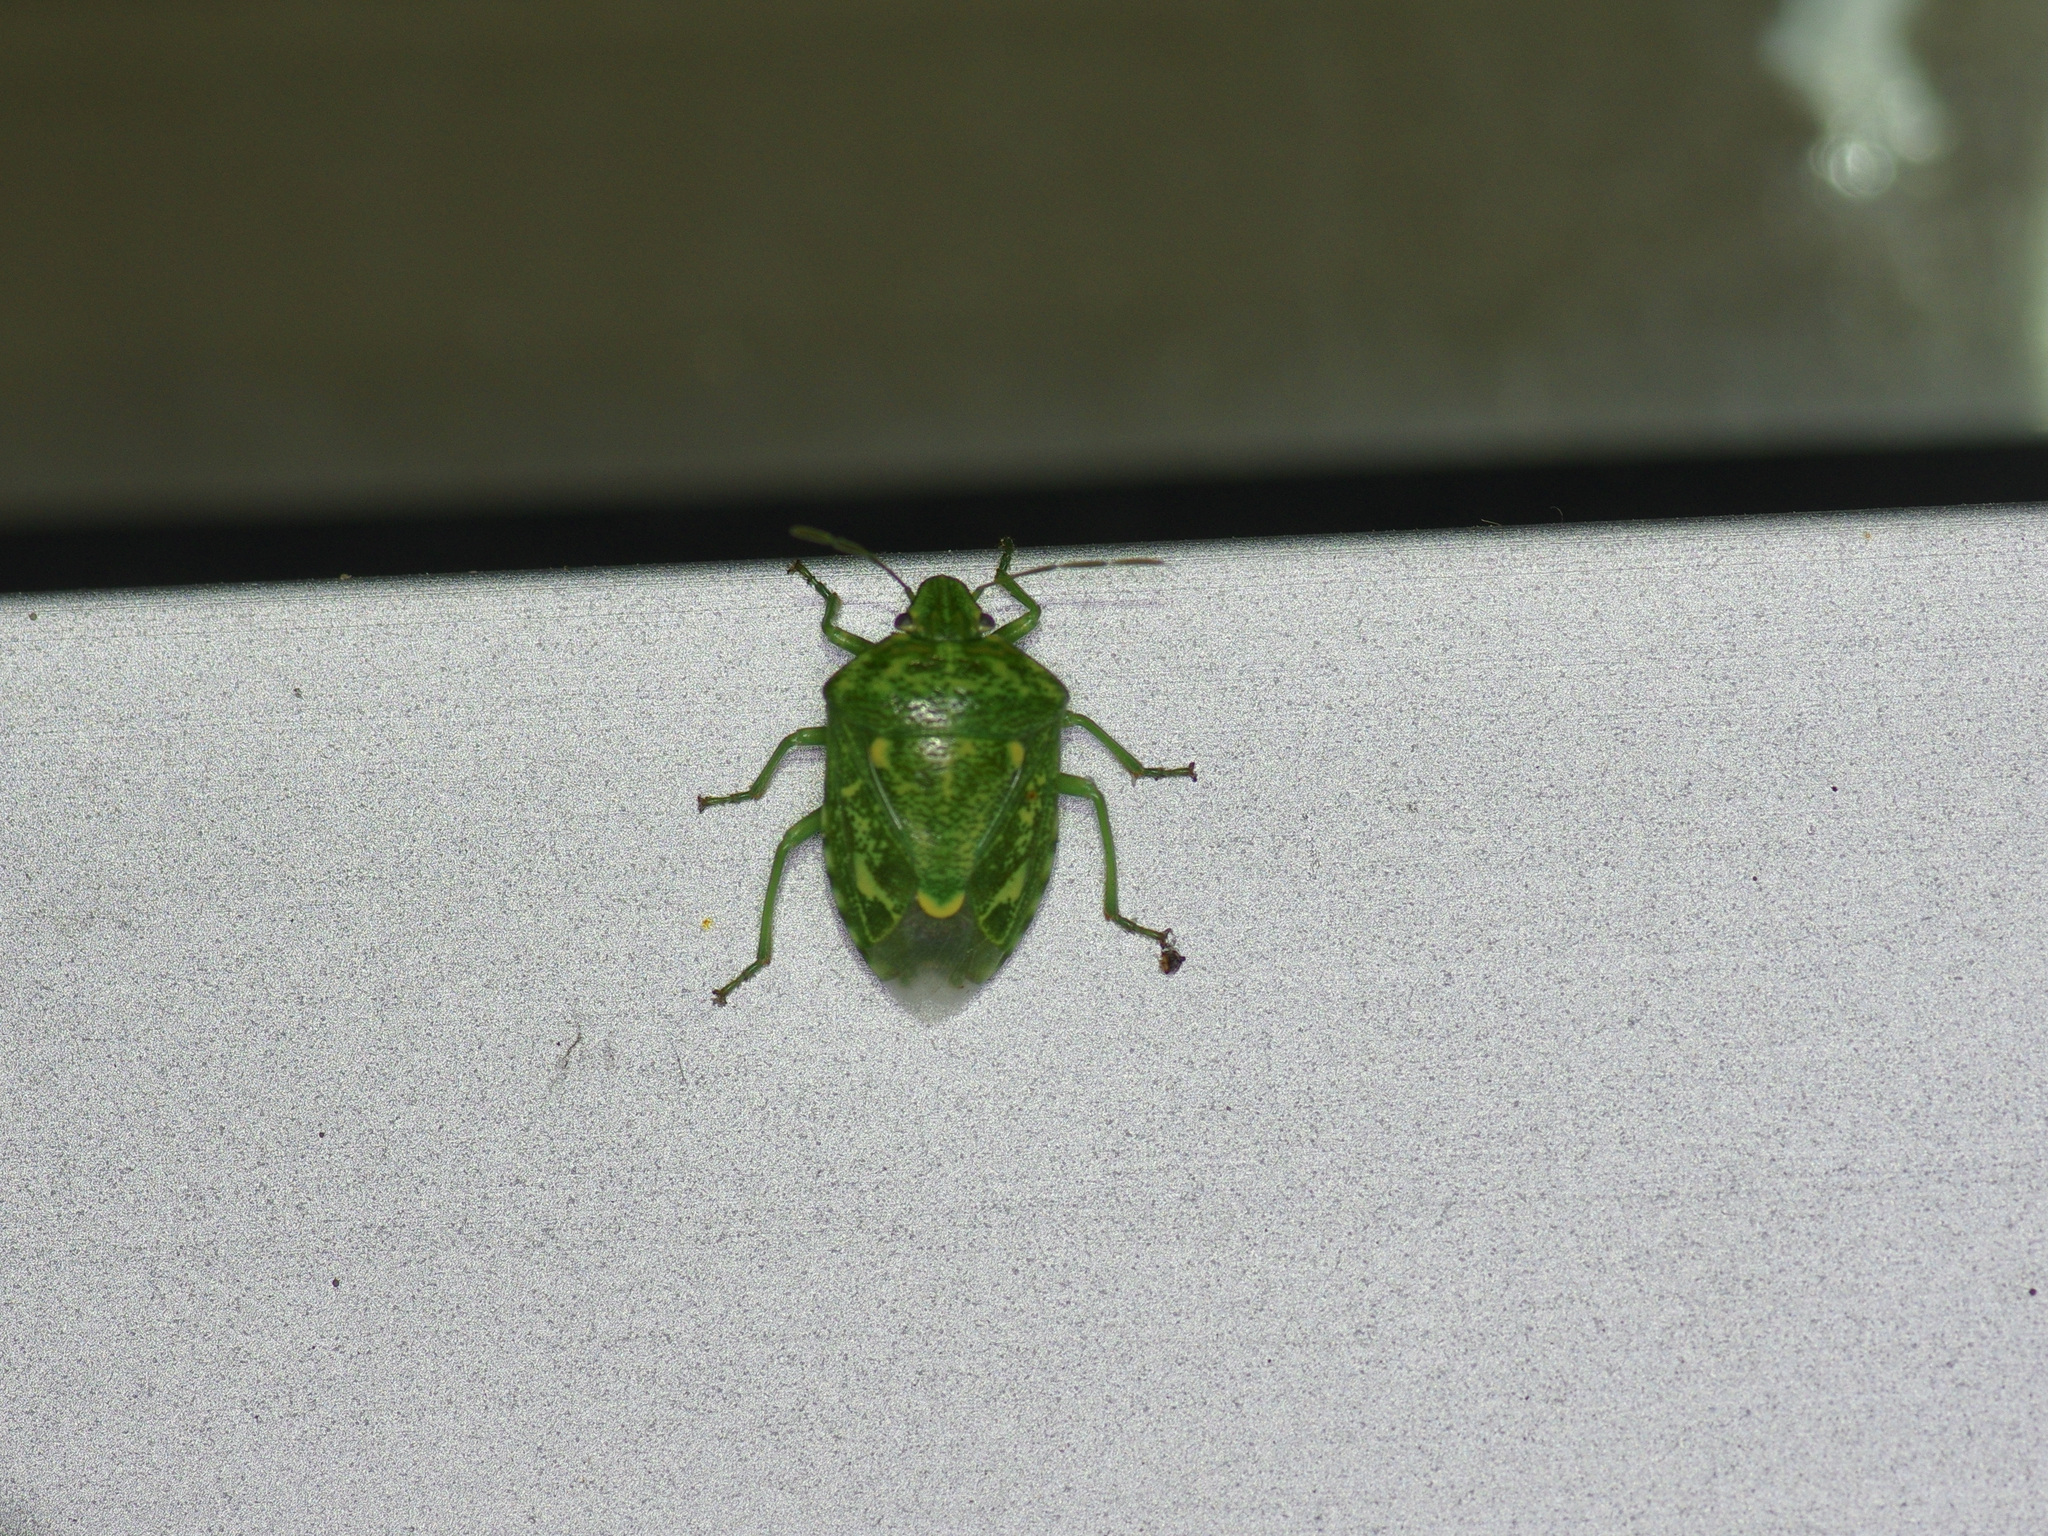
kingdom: Animalia
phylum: Arthropoda
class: Insecta
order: Hemiptera
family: Pentatomidae
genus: Banasa
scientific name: Banasa euchlora
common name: Cedar berry bug
